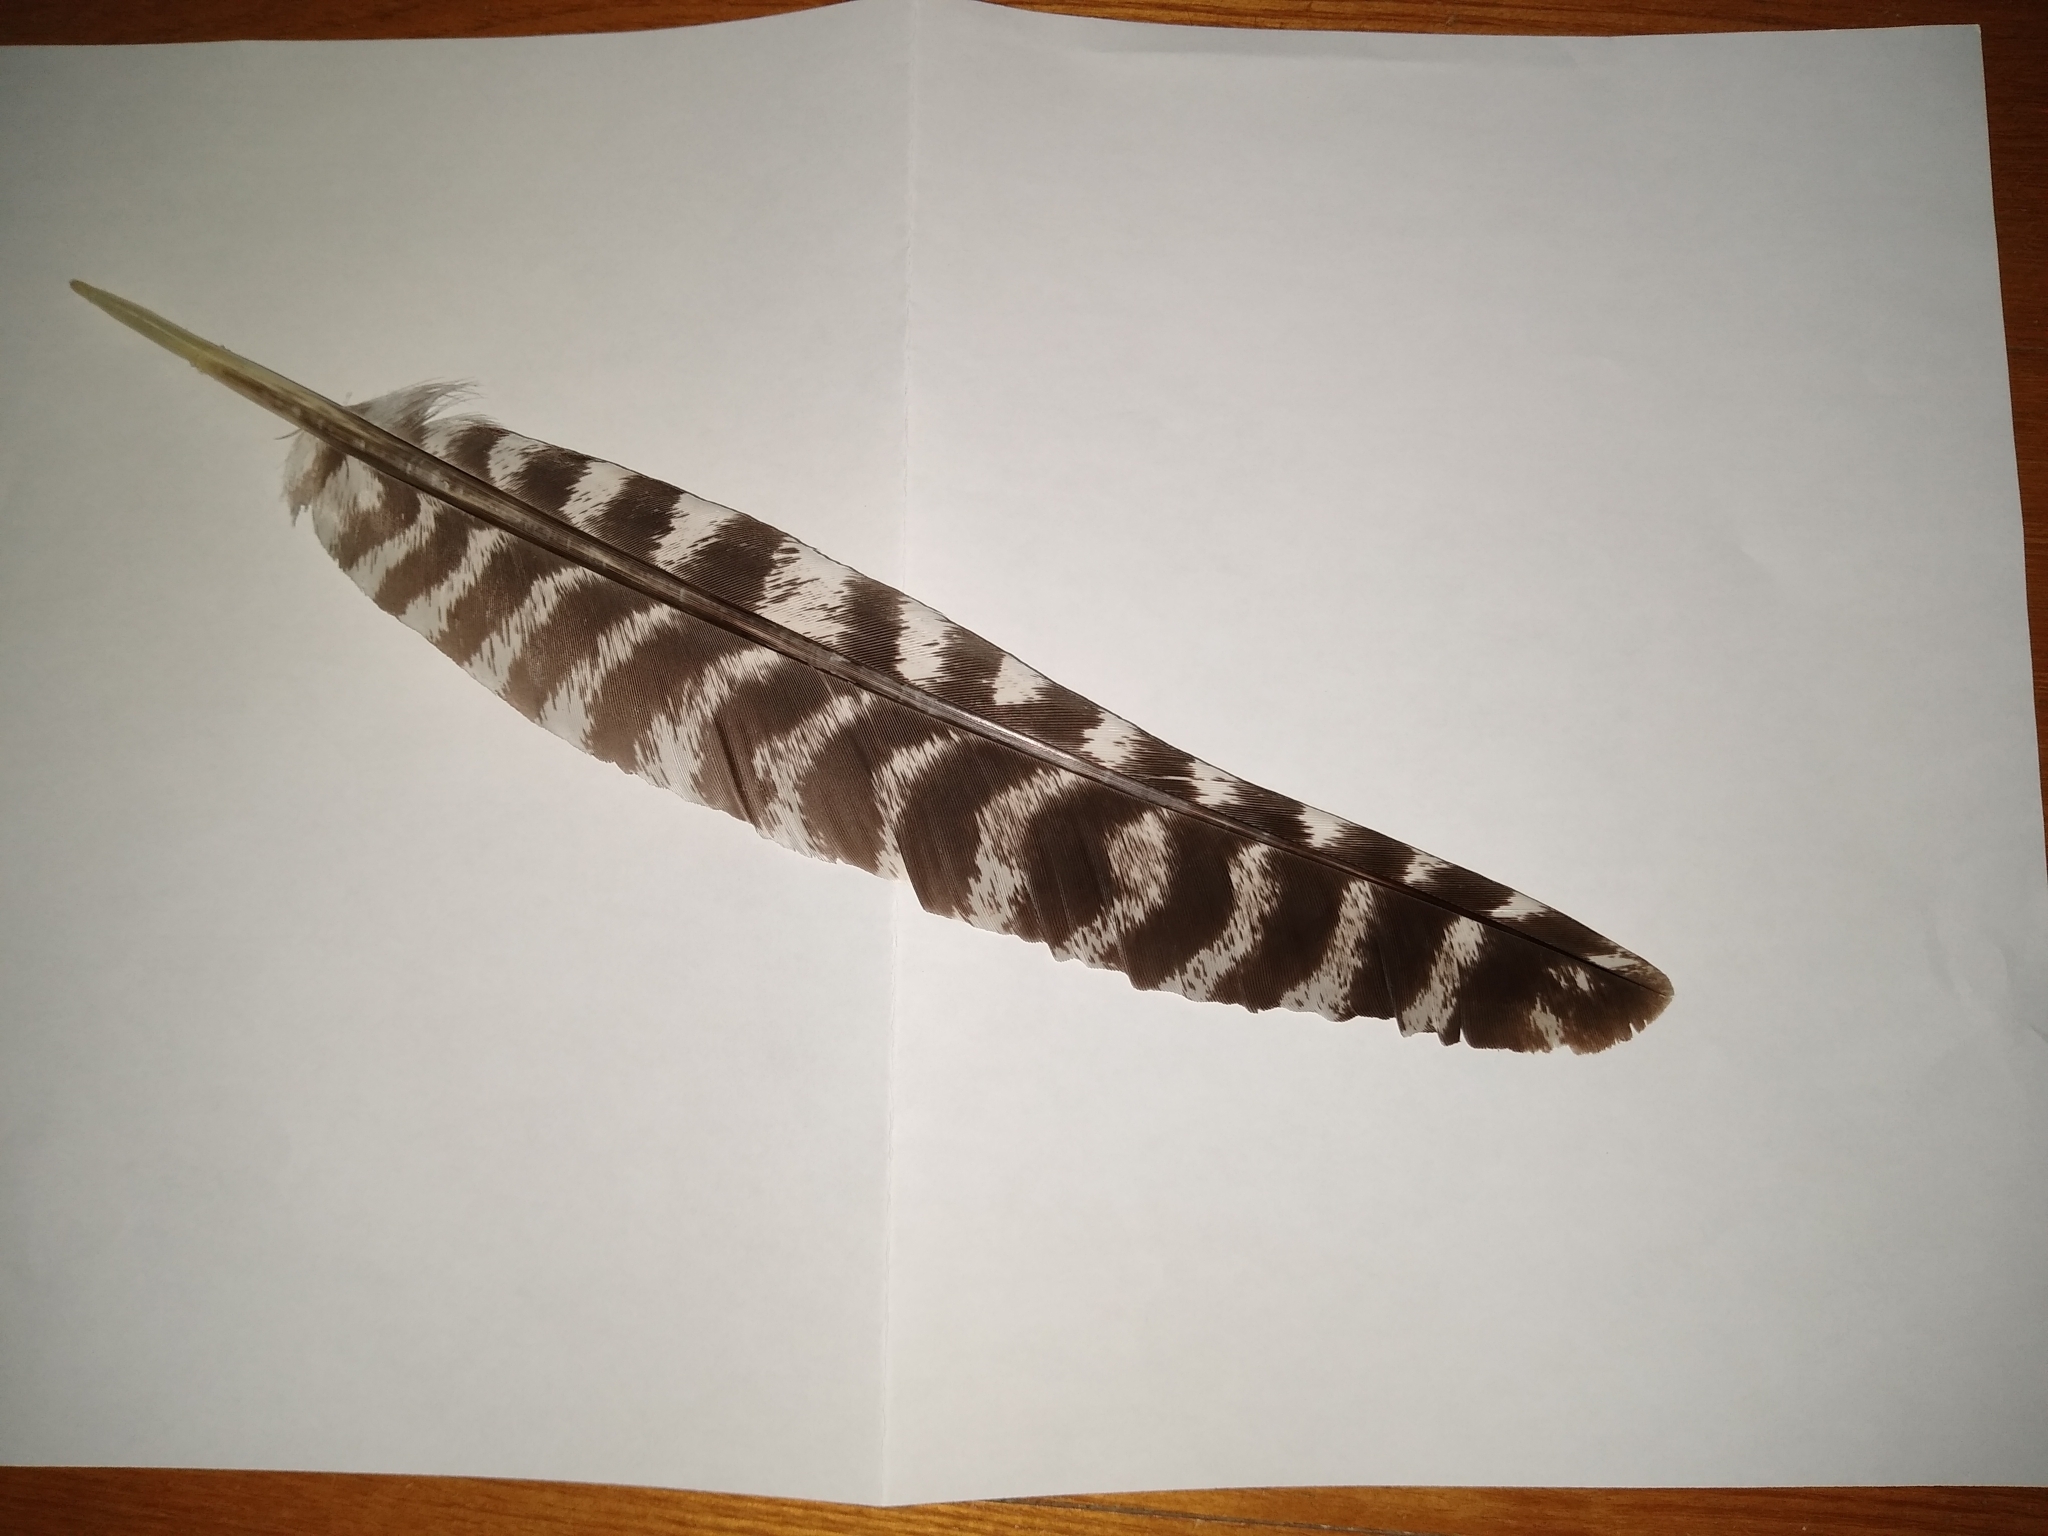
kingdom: Animalia
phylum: Chordata
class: Aves
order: Galliformes
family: Phasianidae
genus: Meleagris
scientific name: Meleagris gallopavo
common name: Wild turkey
